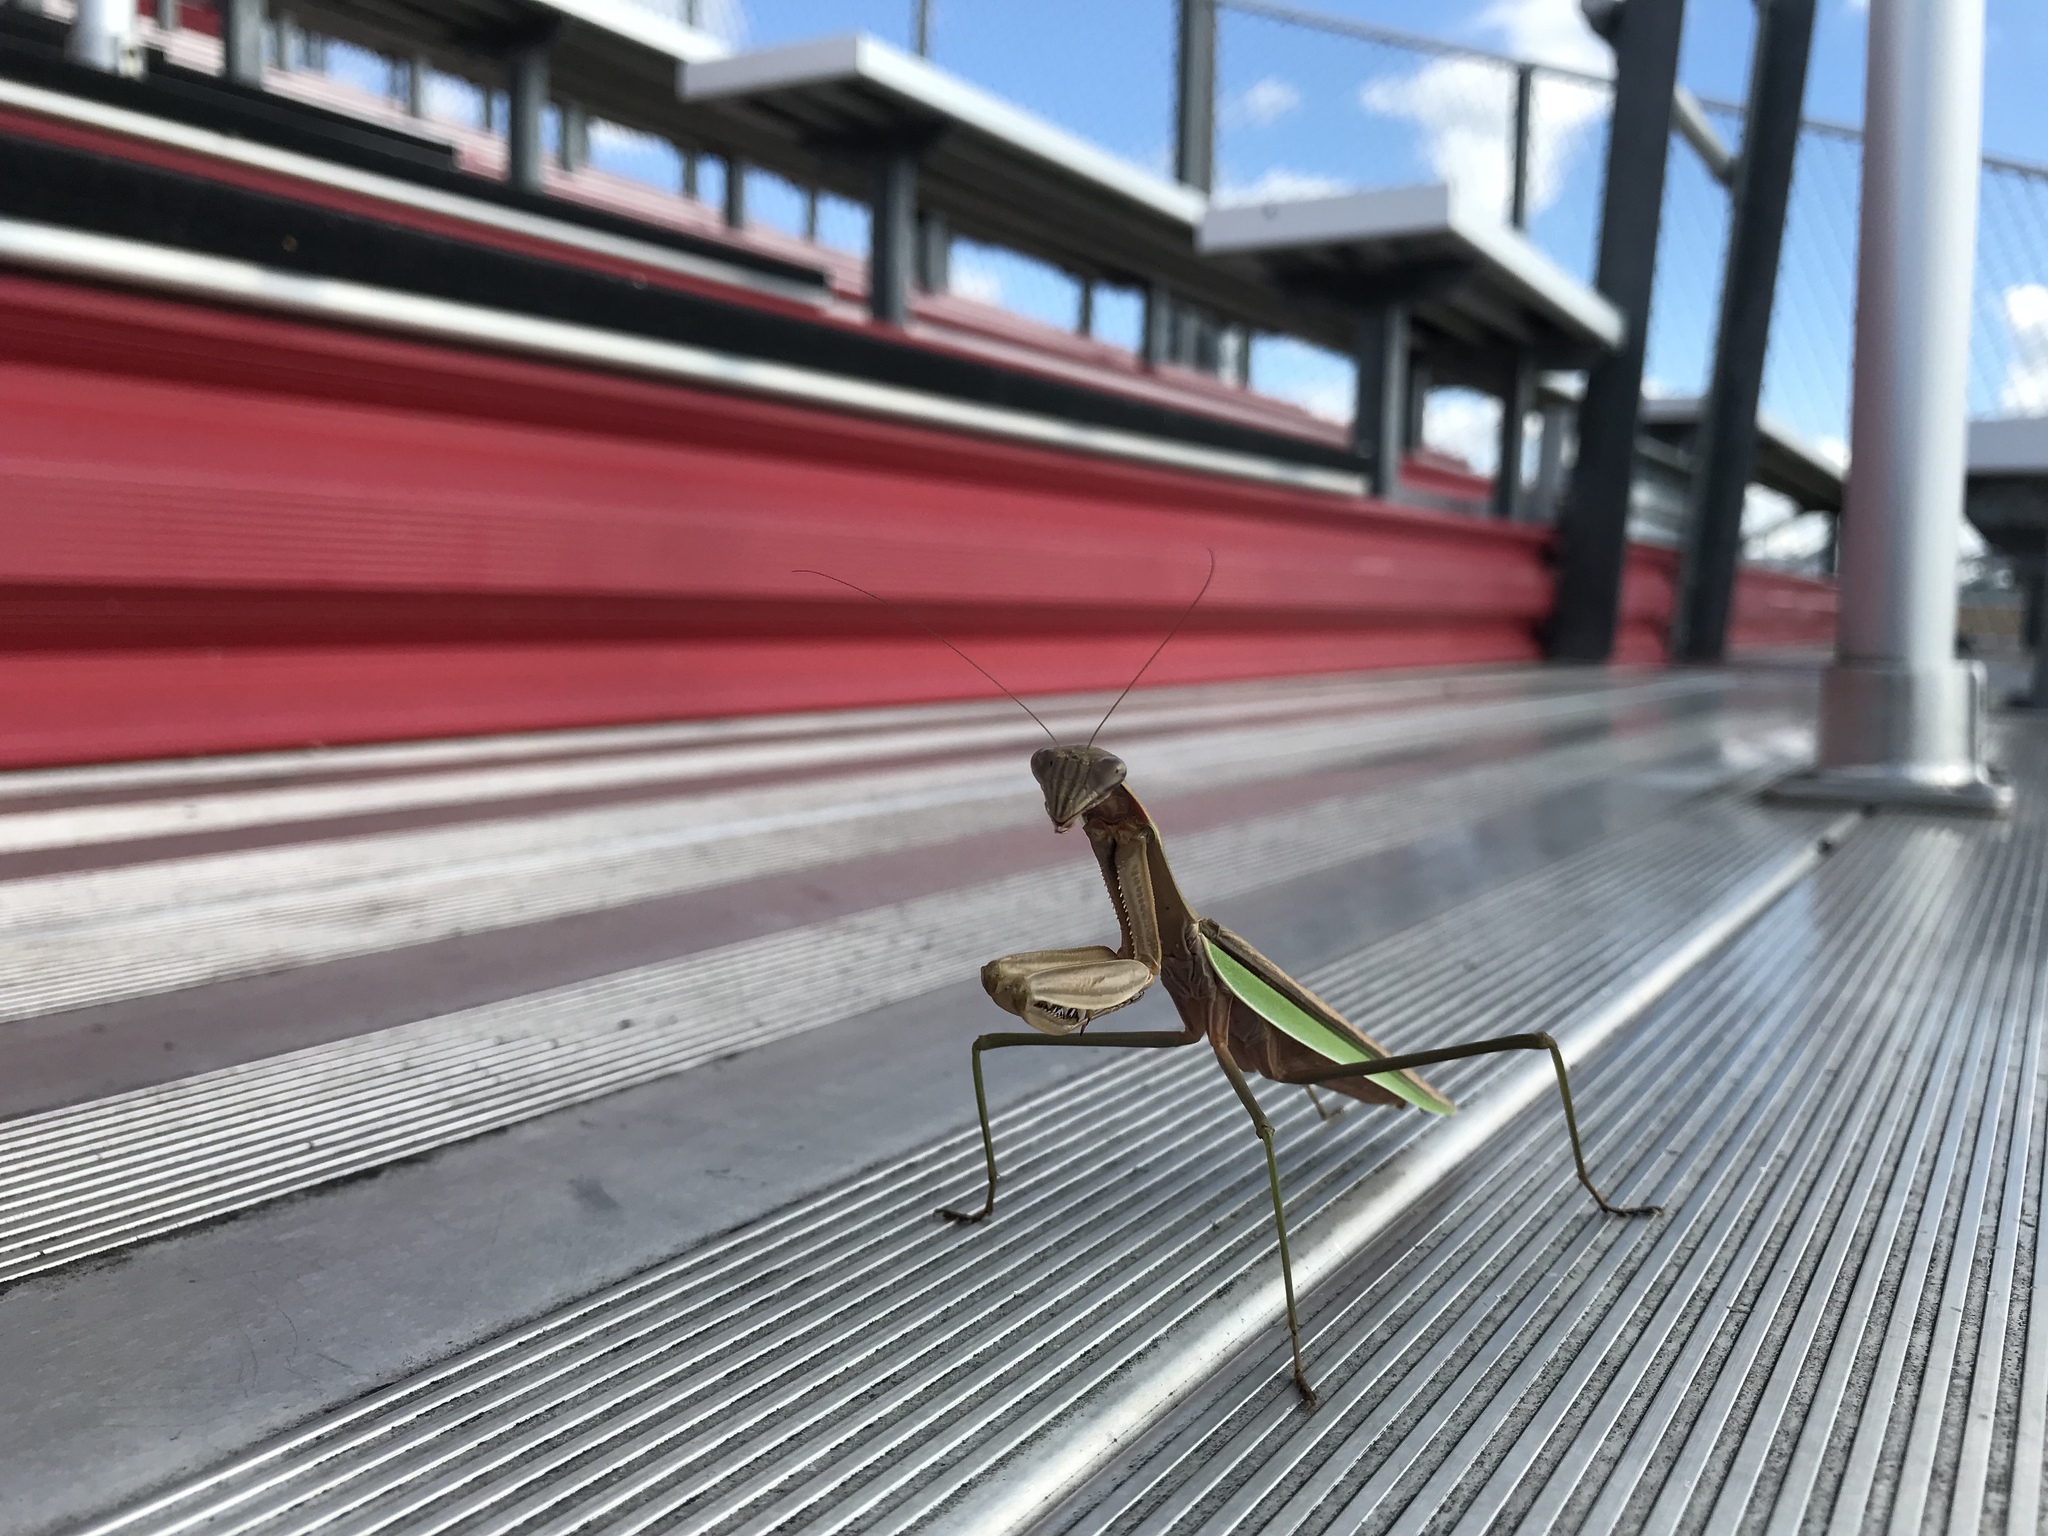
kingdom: Animalia
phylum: Arthropoda
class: Insecta
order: Mantodea
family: Mantidae
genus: Tenodera
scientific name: Tenodera sinensis
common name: Chinese mantis
